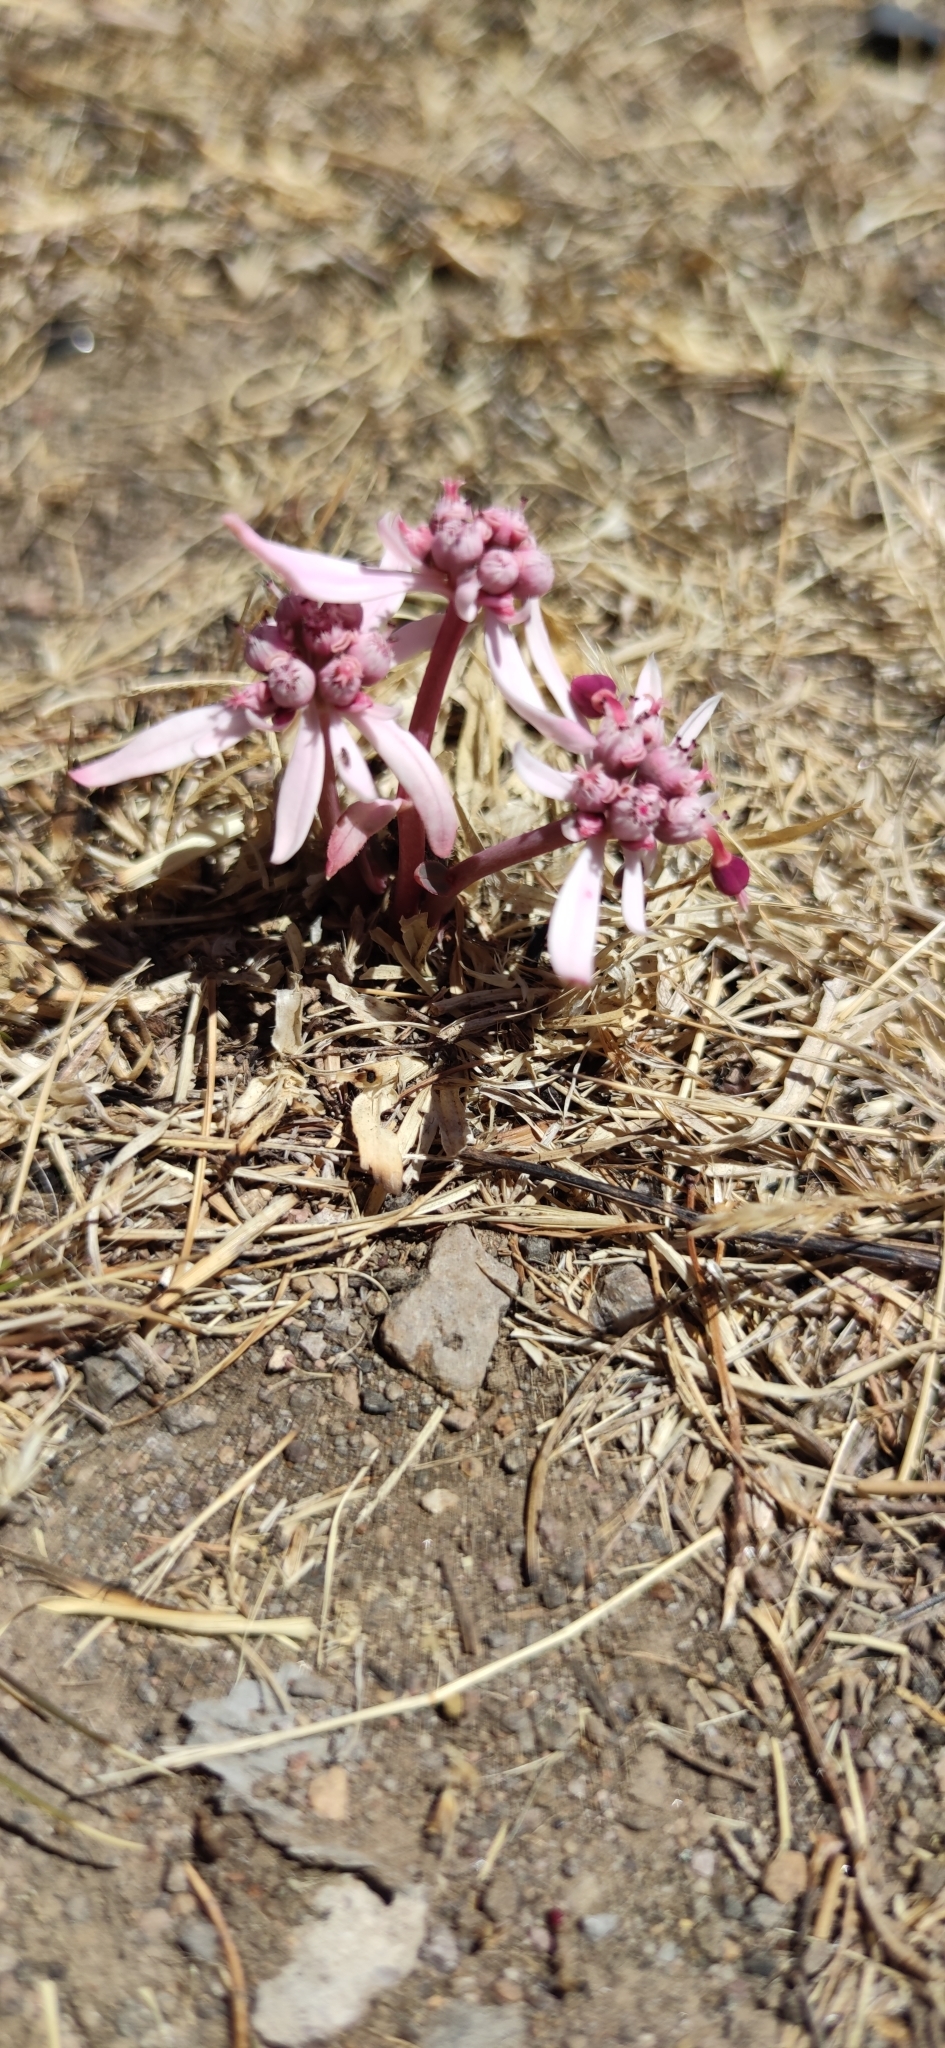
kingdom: Plantae
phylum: Tracheophyta
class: Magnoliopsida
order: Malpighiales
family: Euphorbiaceae
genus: Euphorbia
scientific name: Euphorbia radians
